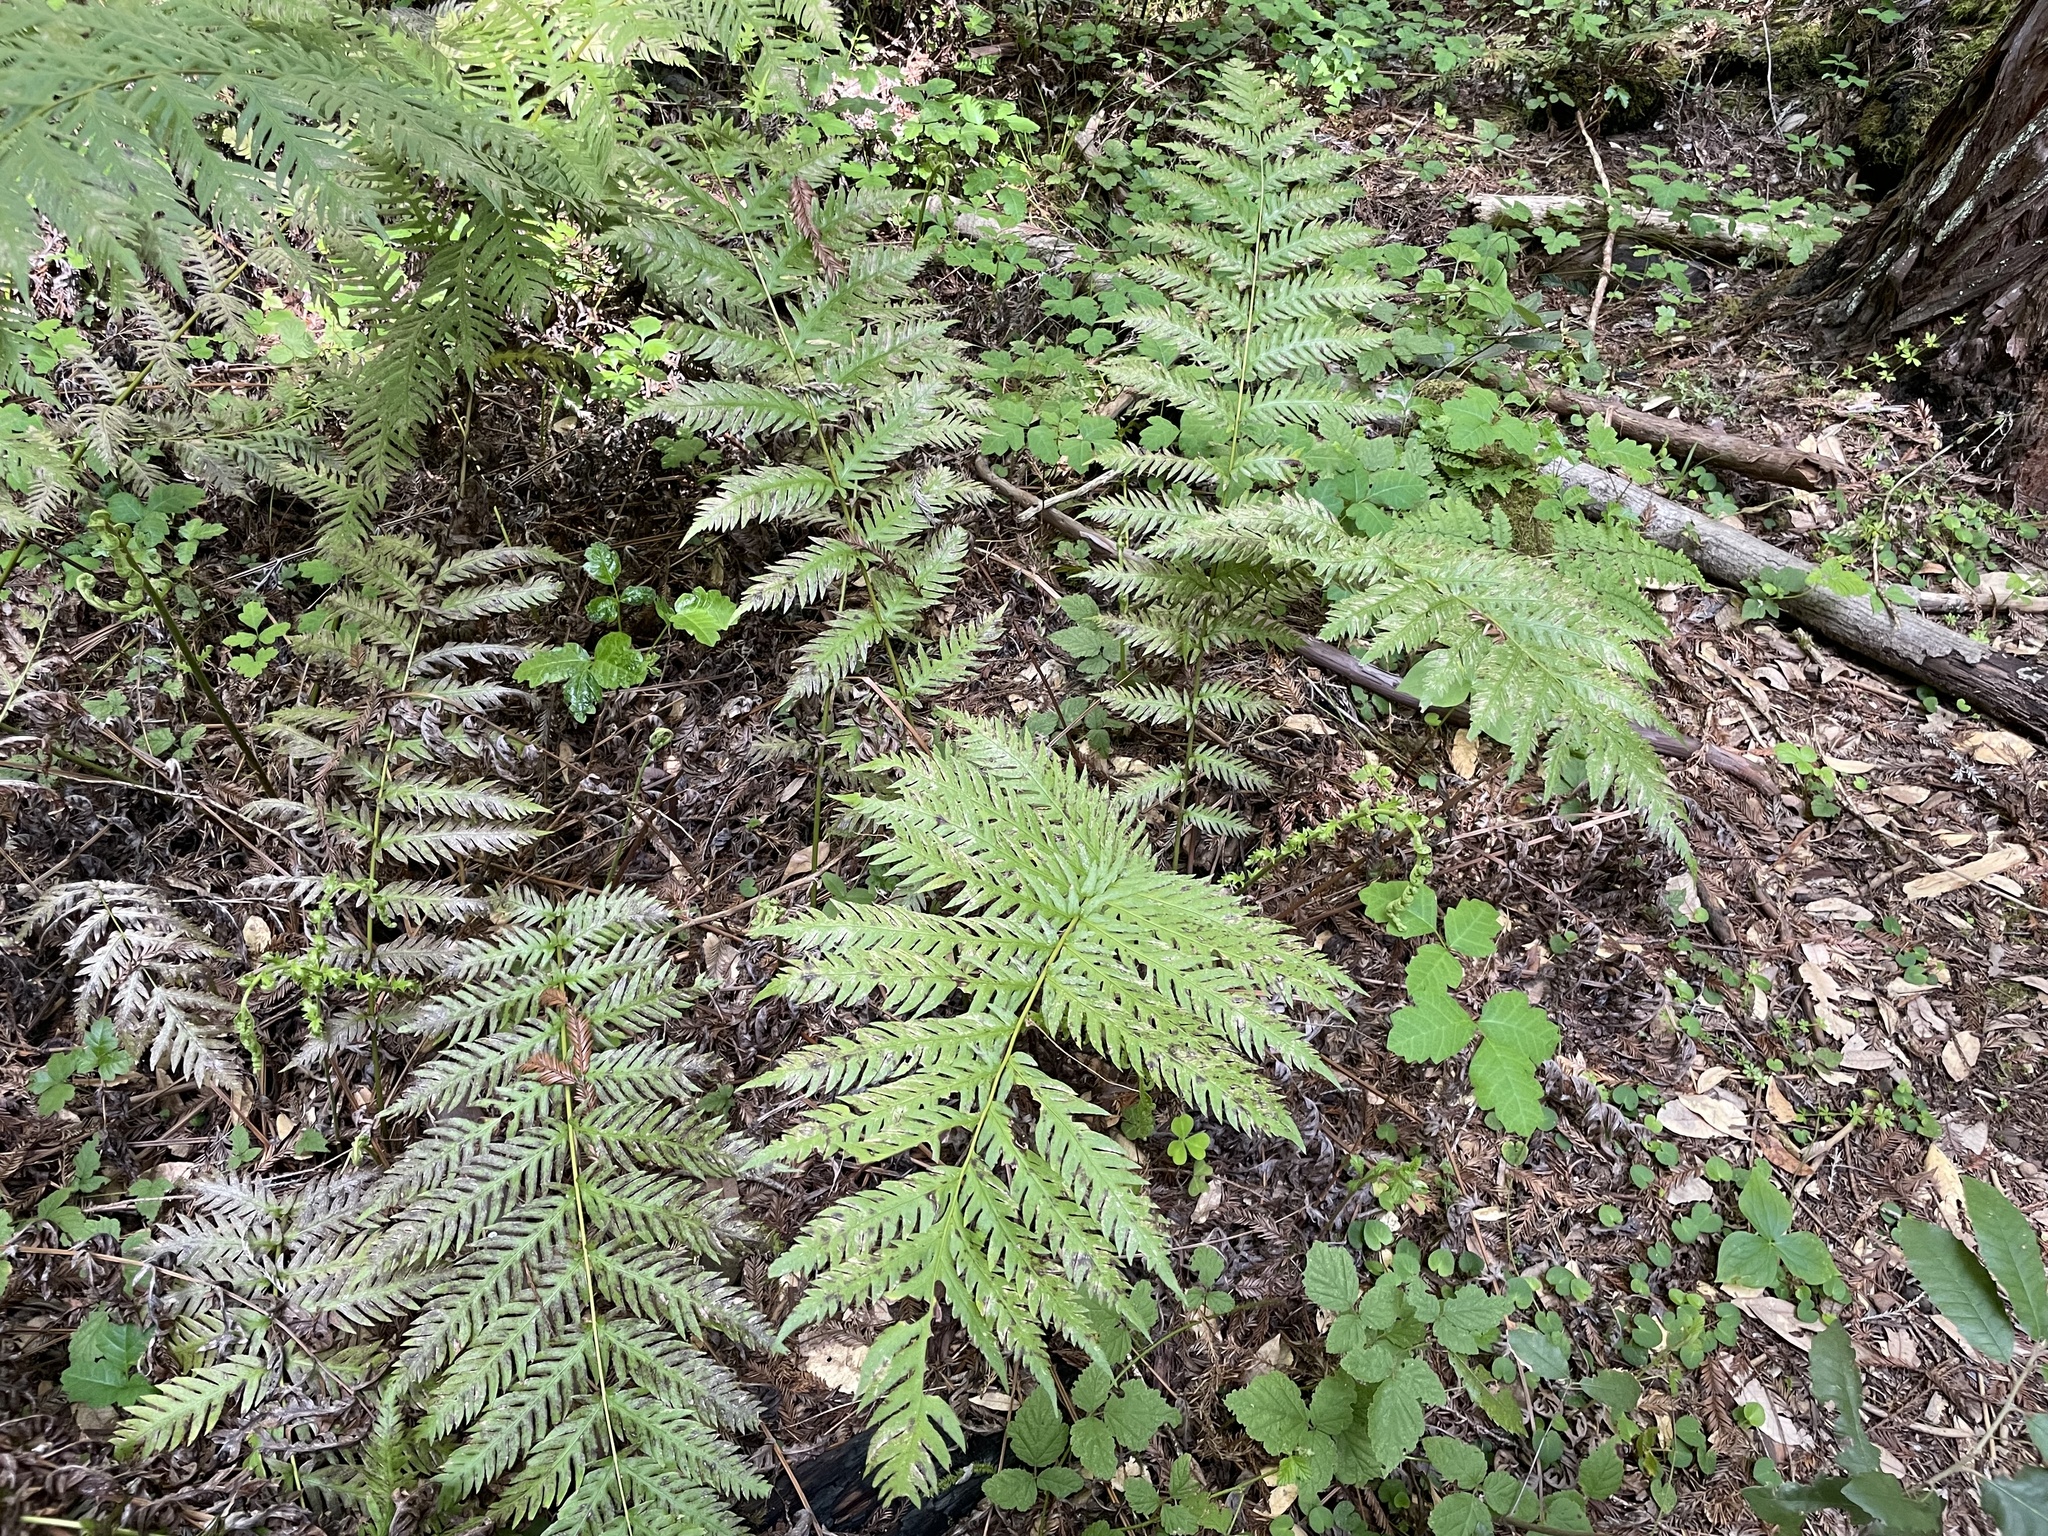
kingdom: Plantae
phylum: Tracheophyta
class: Polypodiopsida
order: Polypodiales
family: Blechnaceae
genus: Woodwardia
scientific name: Woodwardia fimbriata
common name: Giant chain fern
